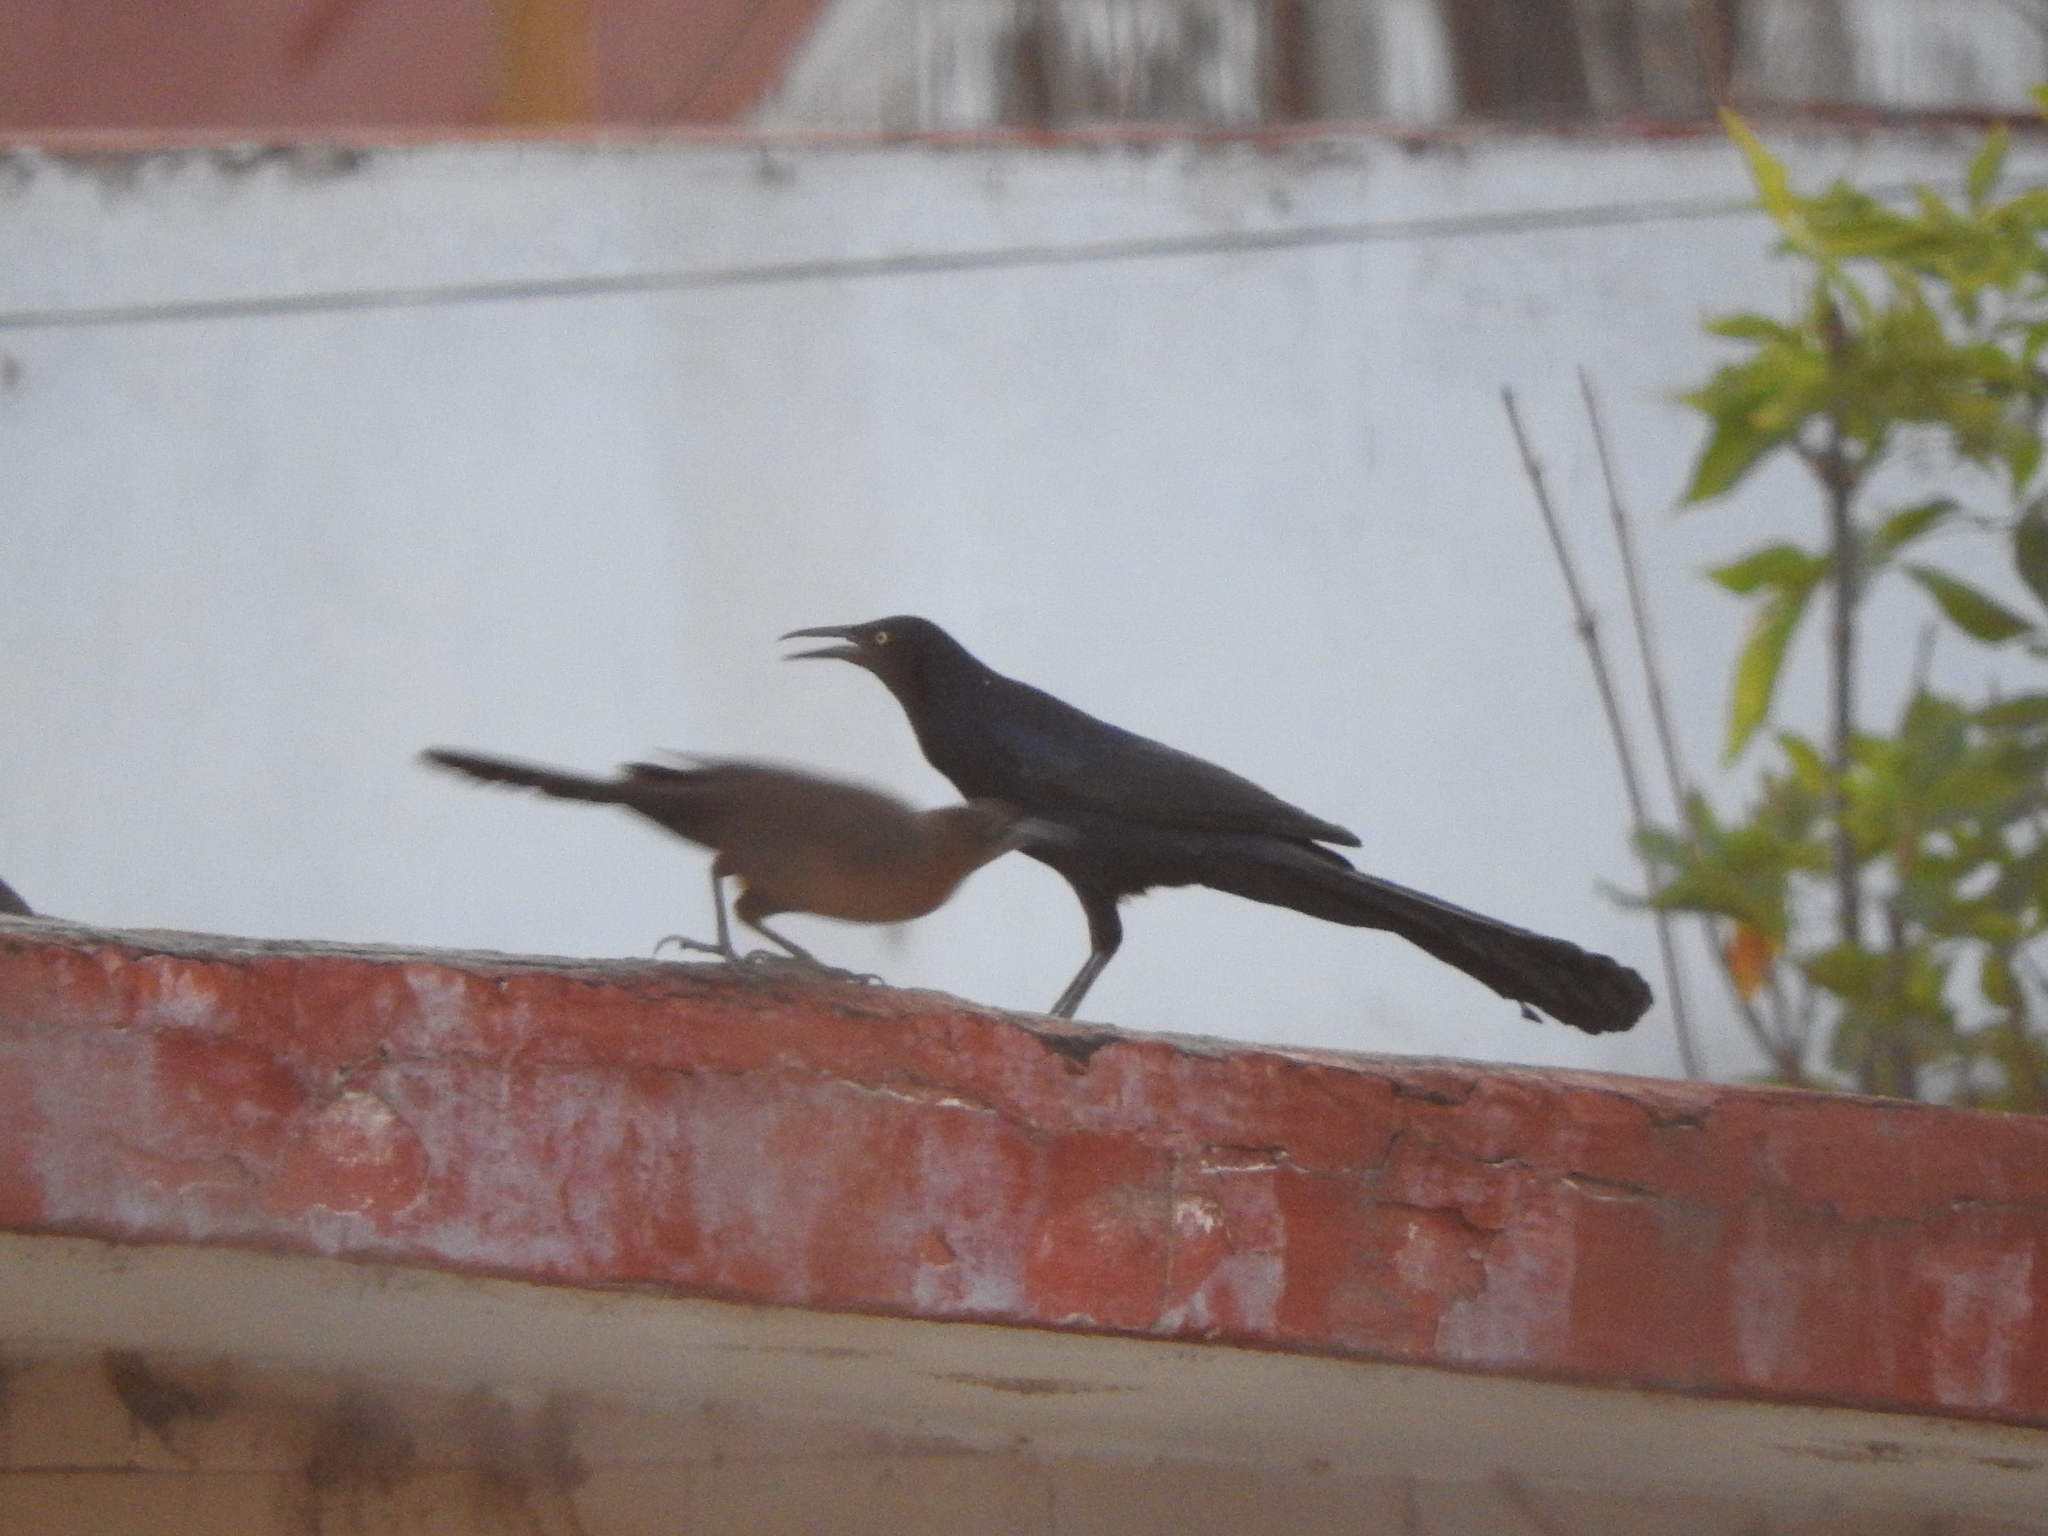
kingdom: Animalia
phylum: Chordata
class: Aves
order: Passeriformes
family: Icteridae
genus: Quiscalus
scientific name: Quiscalus mexicanus
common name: Great-tailed grackle
